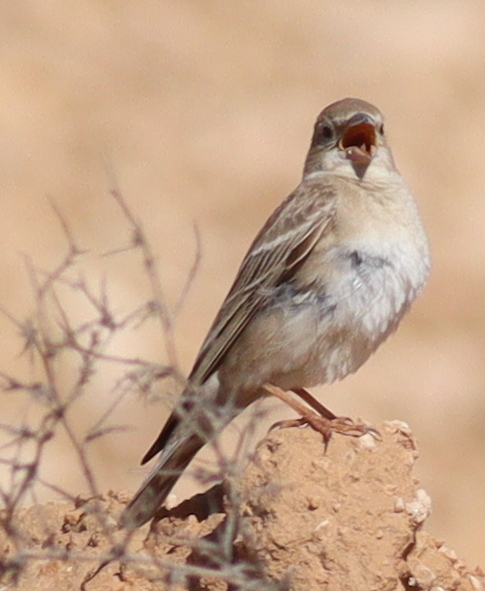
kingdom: Animalia
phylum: Chordata
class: Aves
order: Passeriformes
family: Passeridae
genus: Carpospiza
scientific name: Carpospiza brachydactyla
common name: Pale rockfinch
